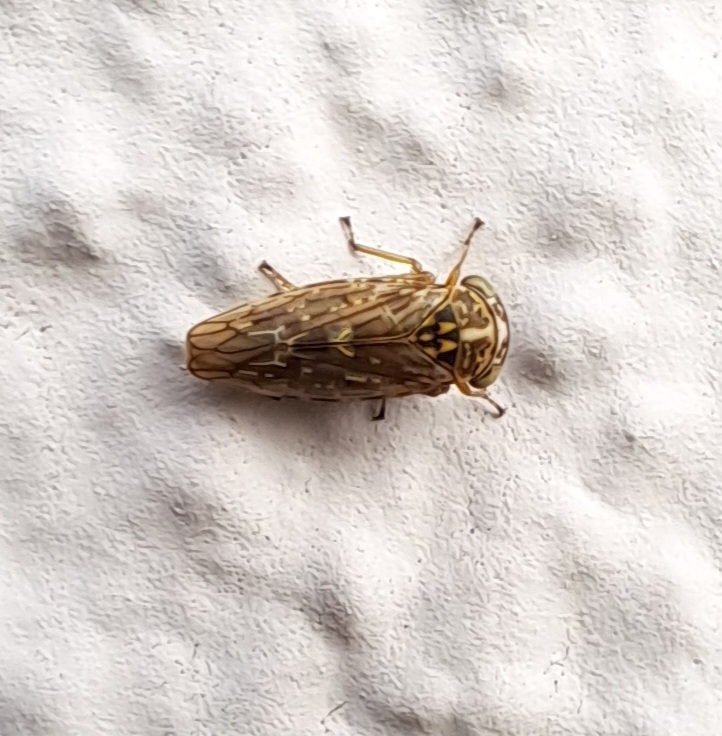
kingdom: Animalia
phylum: Arthropoda
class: Insecta
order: Hemiptera
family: Cicadellidae
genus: Idiocerus
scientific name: Idiocerus herrichii
